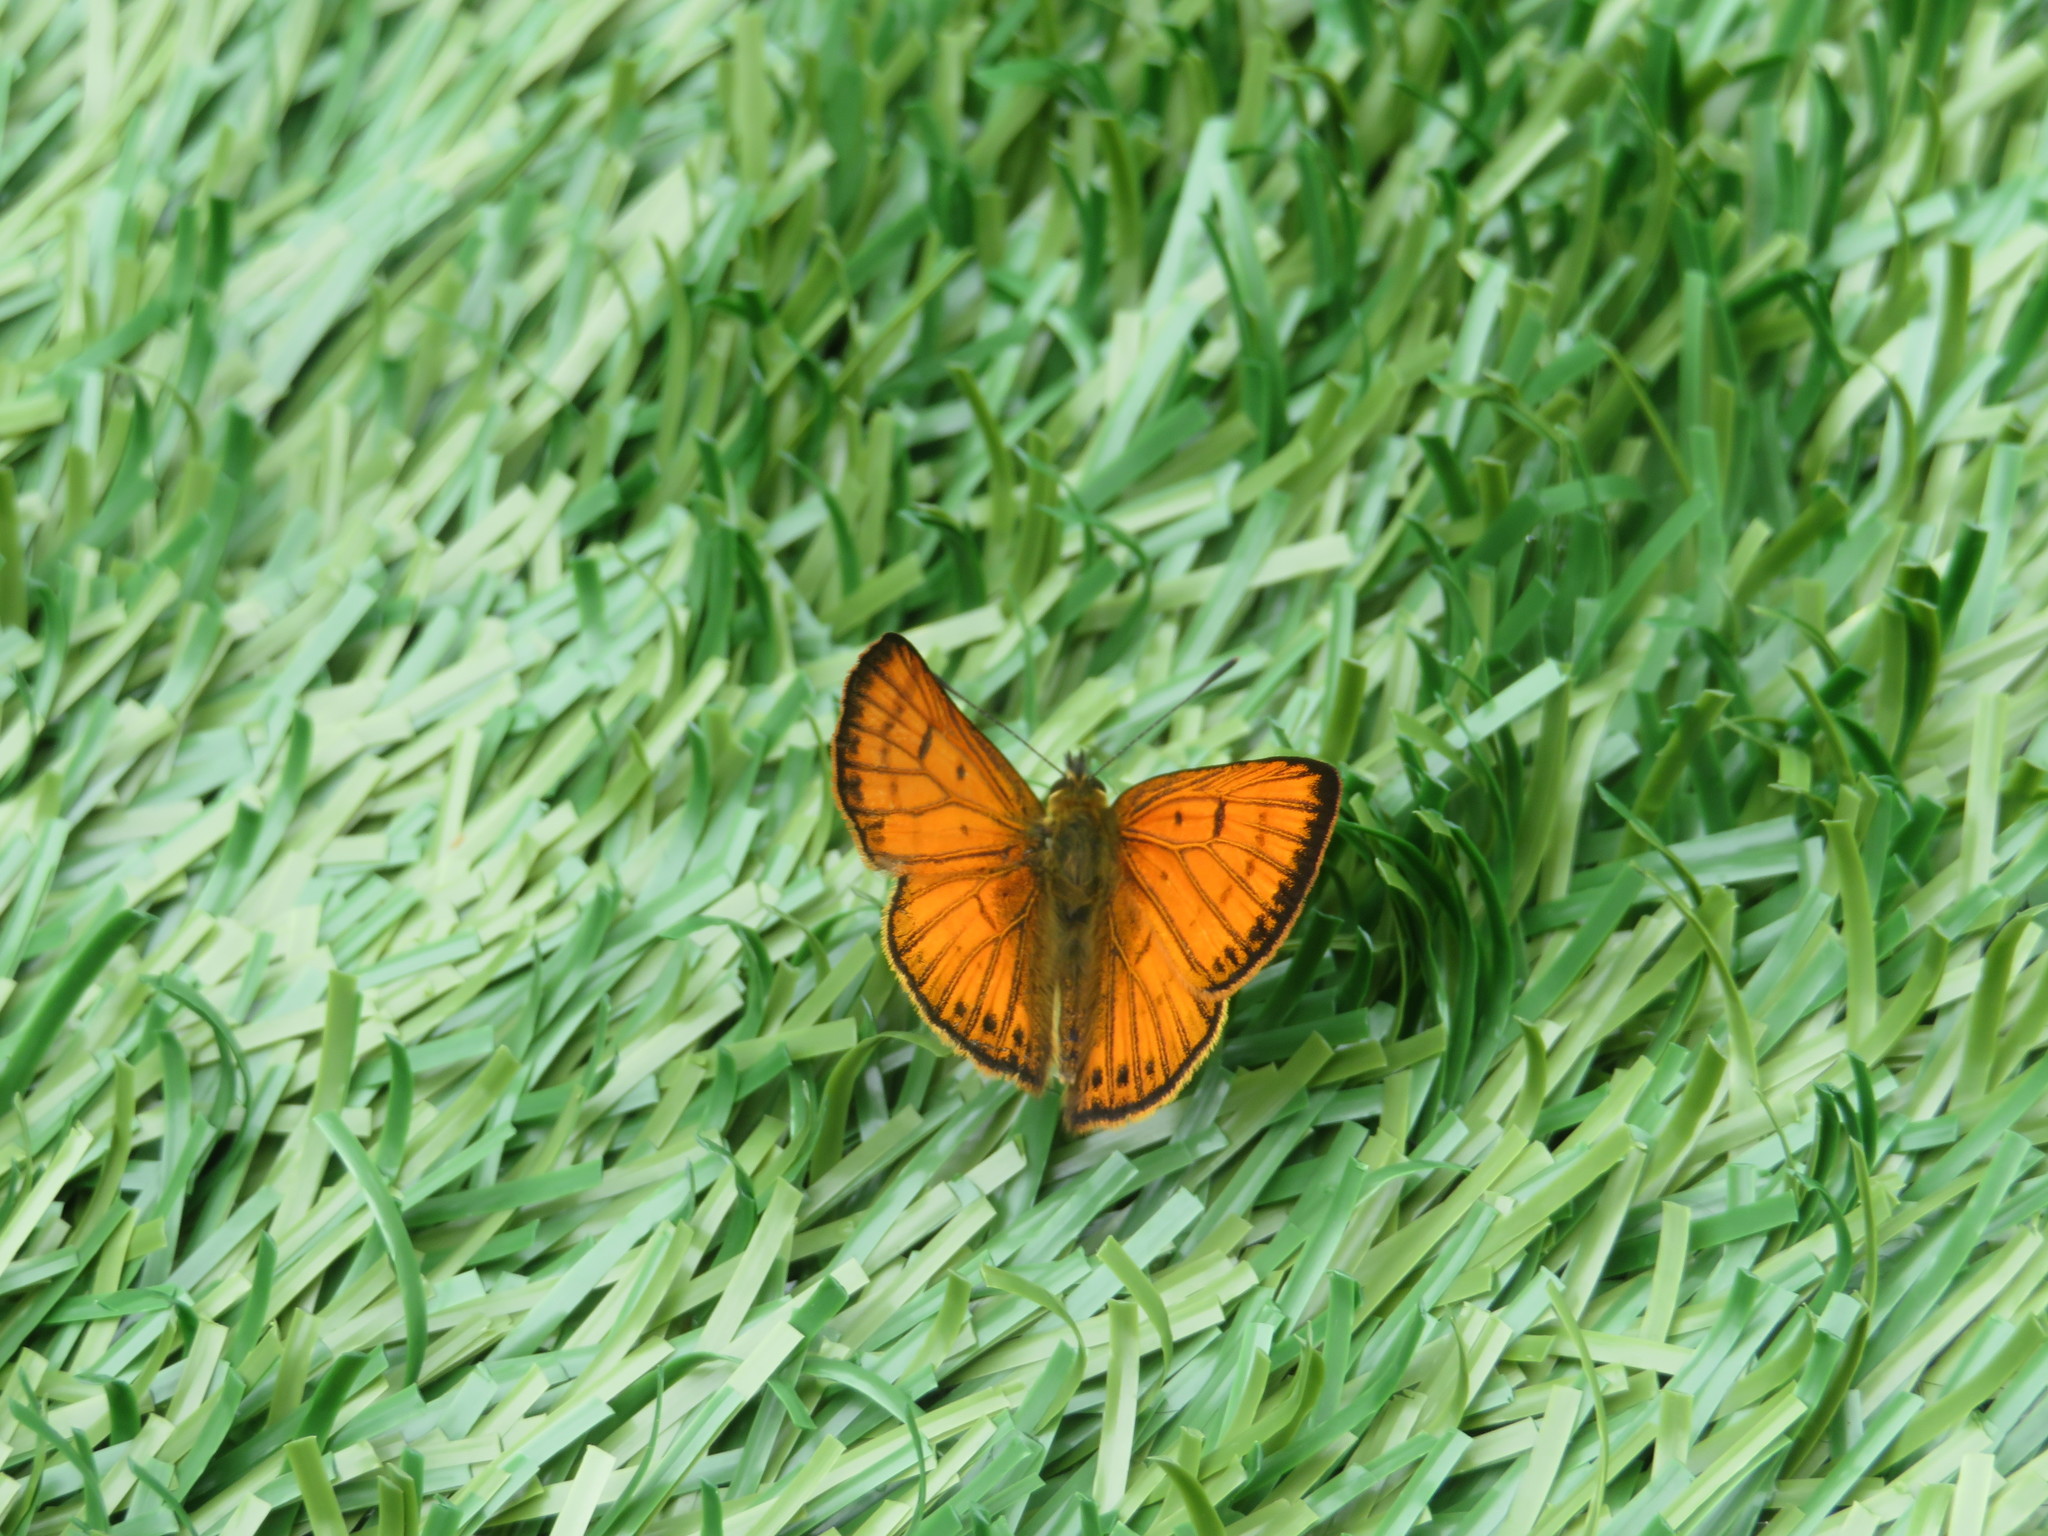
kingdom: Animalia
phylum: Arthropoda
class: Insecta
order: Lepidoptera
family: Lycaenidae
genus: Lycaena
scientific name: Lycaena salustius
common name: North island coastal copper
